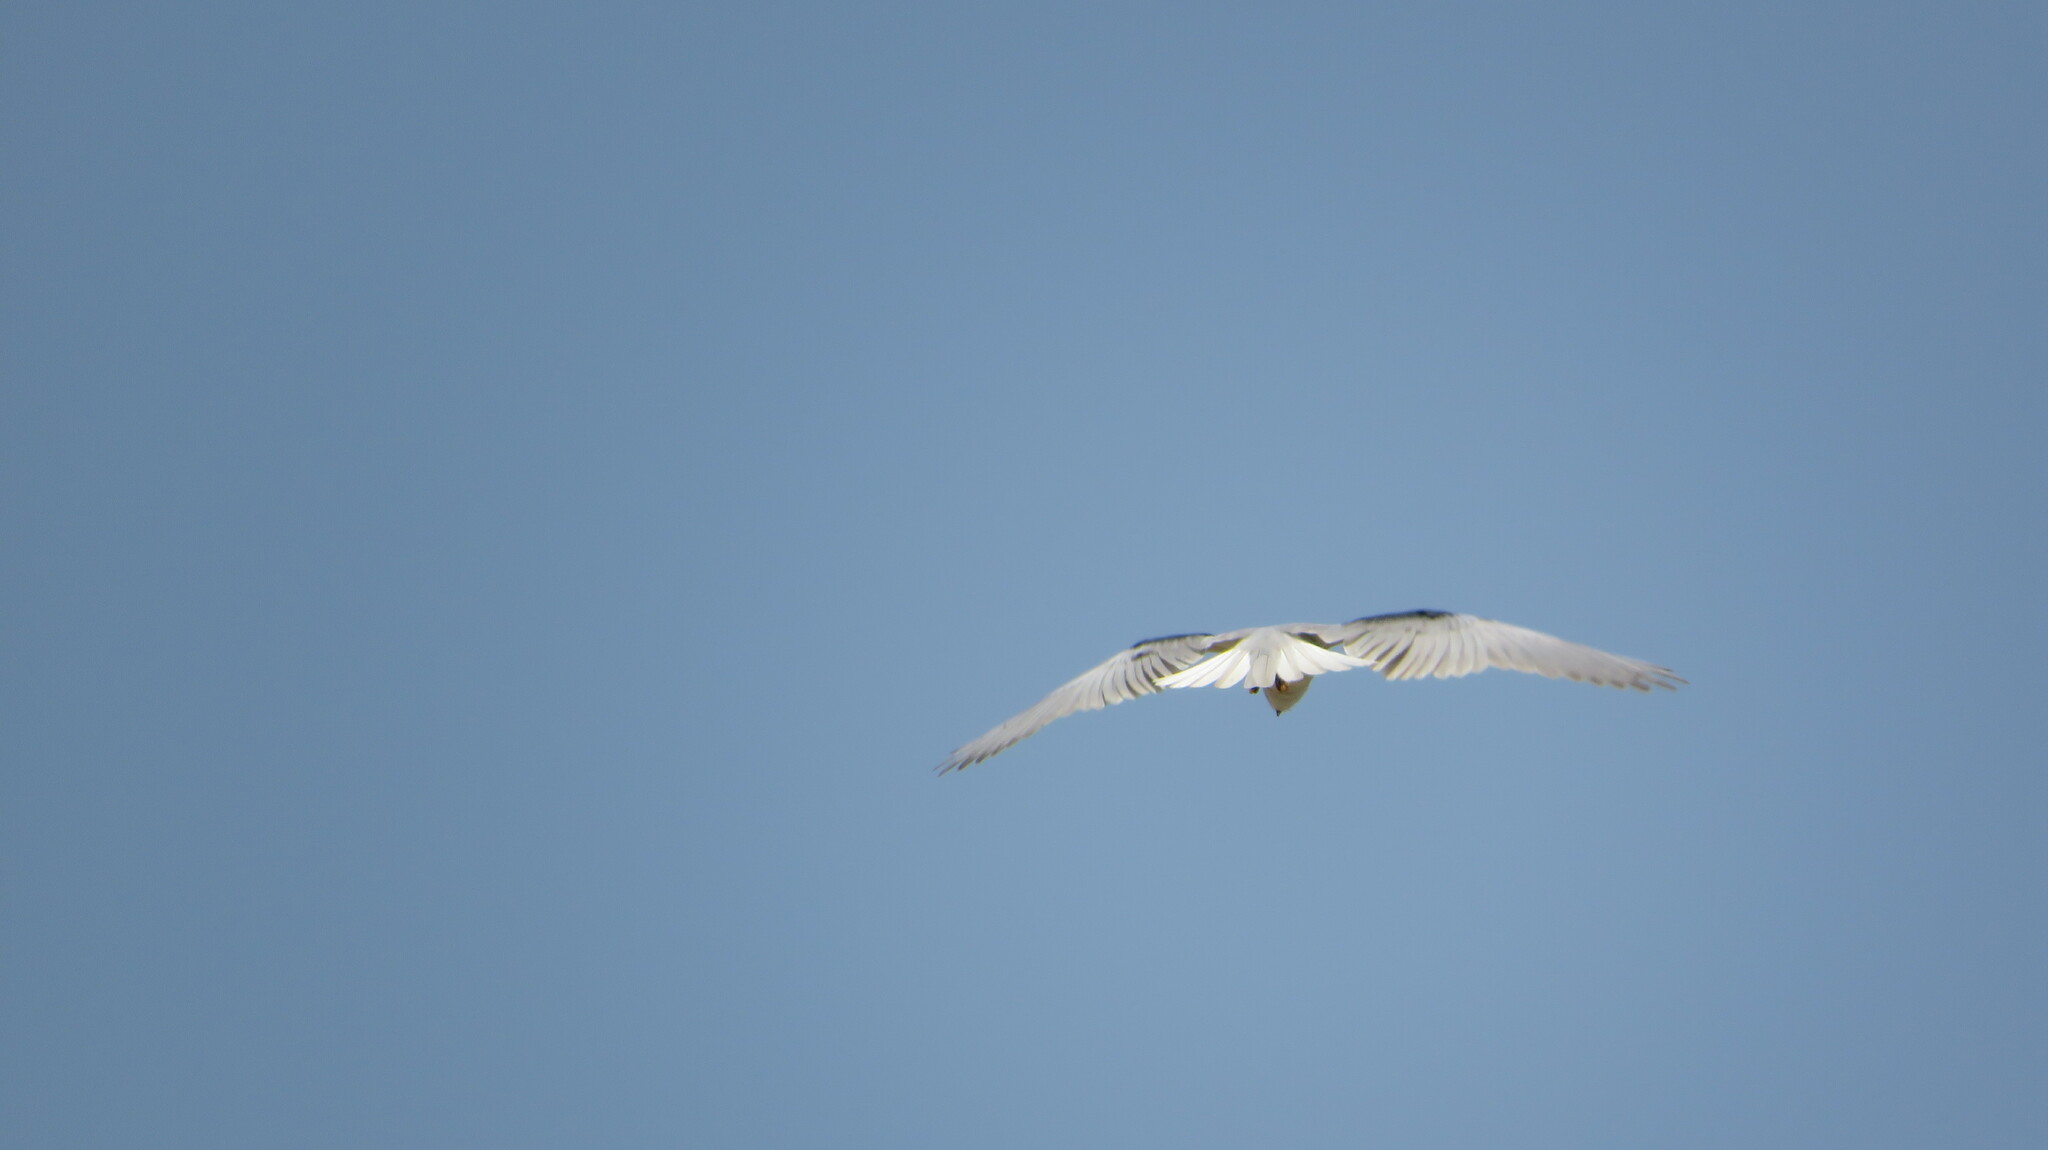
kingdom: Animalia
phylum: Chordata
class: Aves
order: Accipitriformes
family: Accipitridae
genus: Elanus
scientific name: Elanus caeruleus
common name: Black-winged kite
